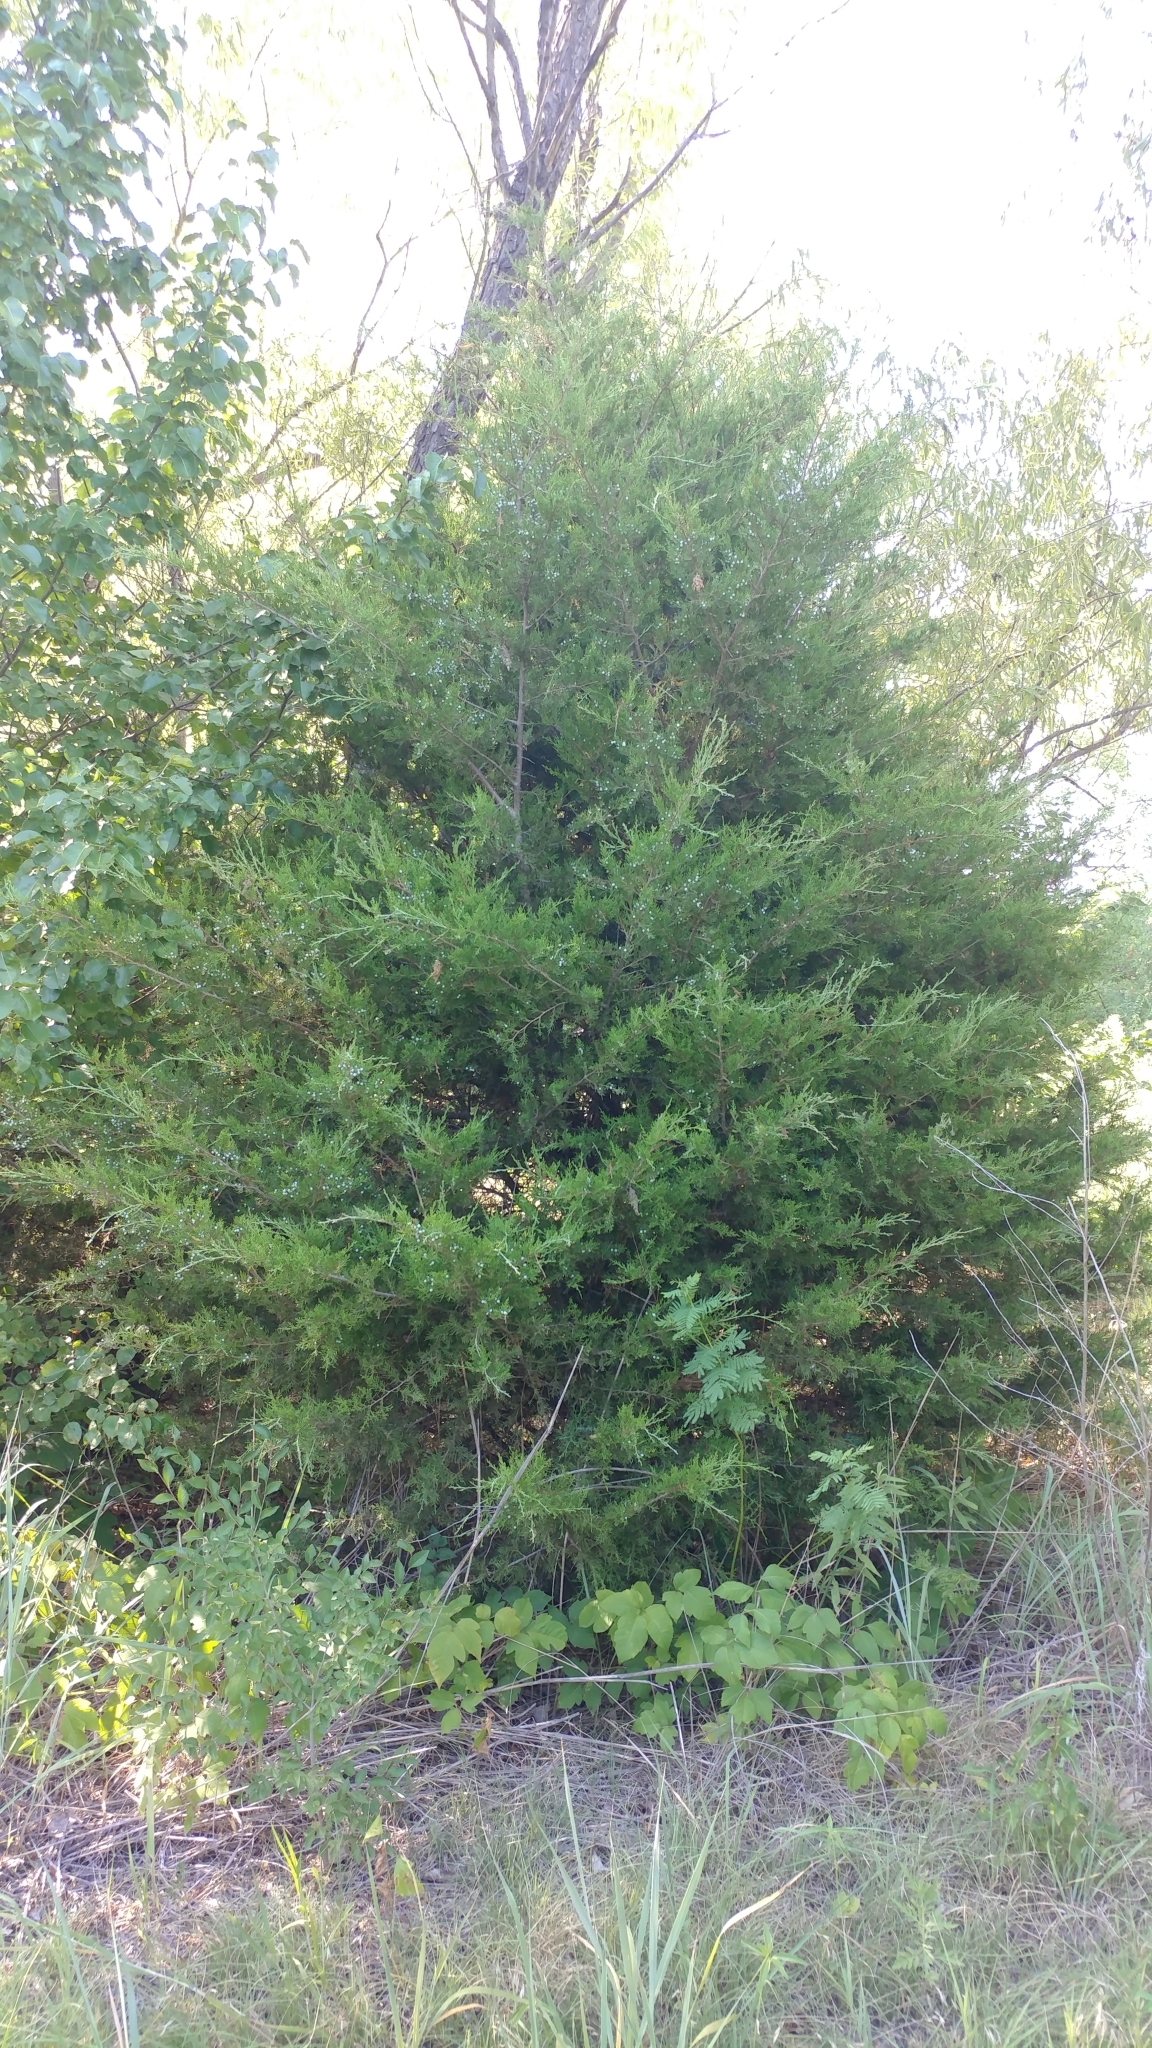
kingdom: Plantae
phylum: Tracheophyta
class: Pinopsida
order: Pinales
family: Cupressaceae
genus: Juniperus
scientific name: Juniperus virginiana
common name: Red juniper
